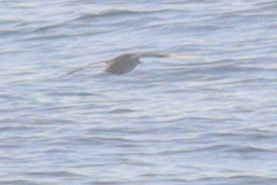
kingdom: Animalia
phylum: Chordata
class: Aves
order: Procellariiformes
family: Procellariidae
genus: Puffinus
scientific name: Puffinus mauretanicus
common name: Balearic shearwater
